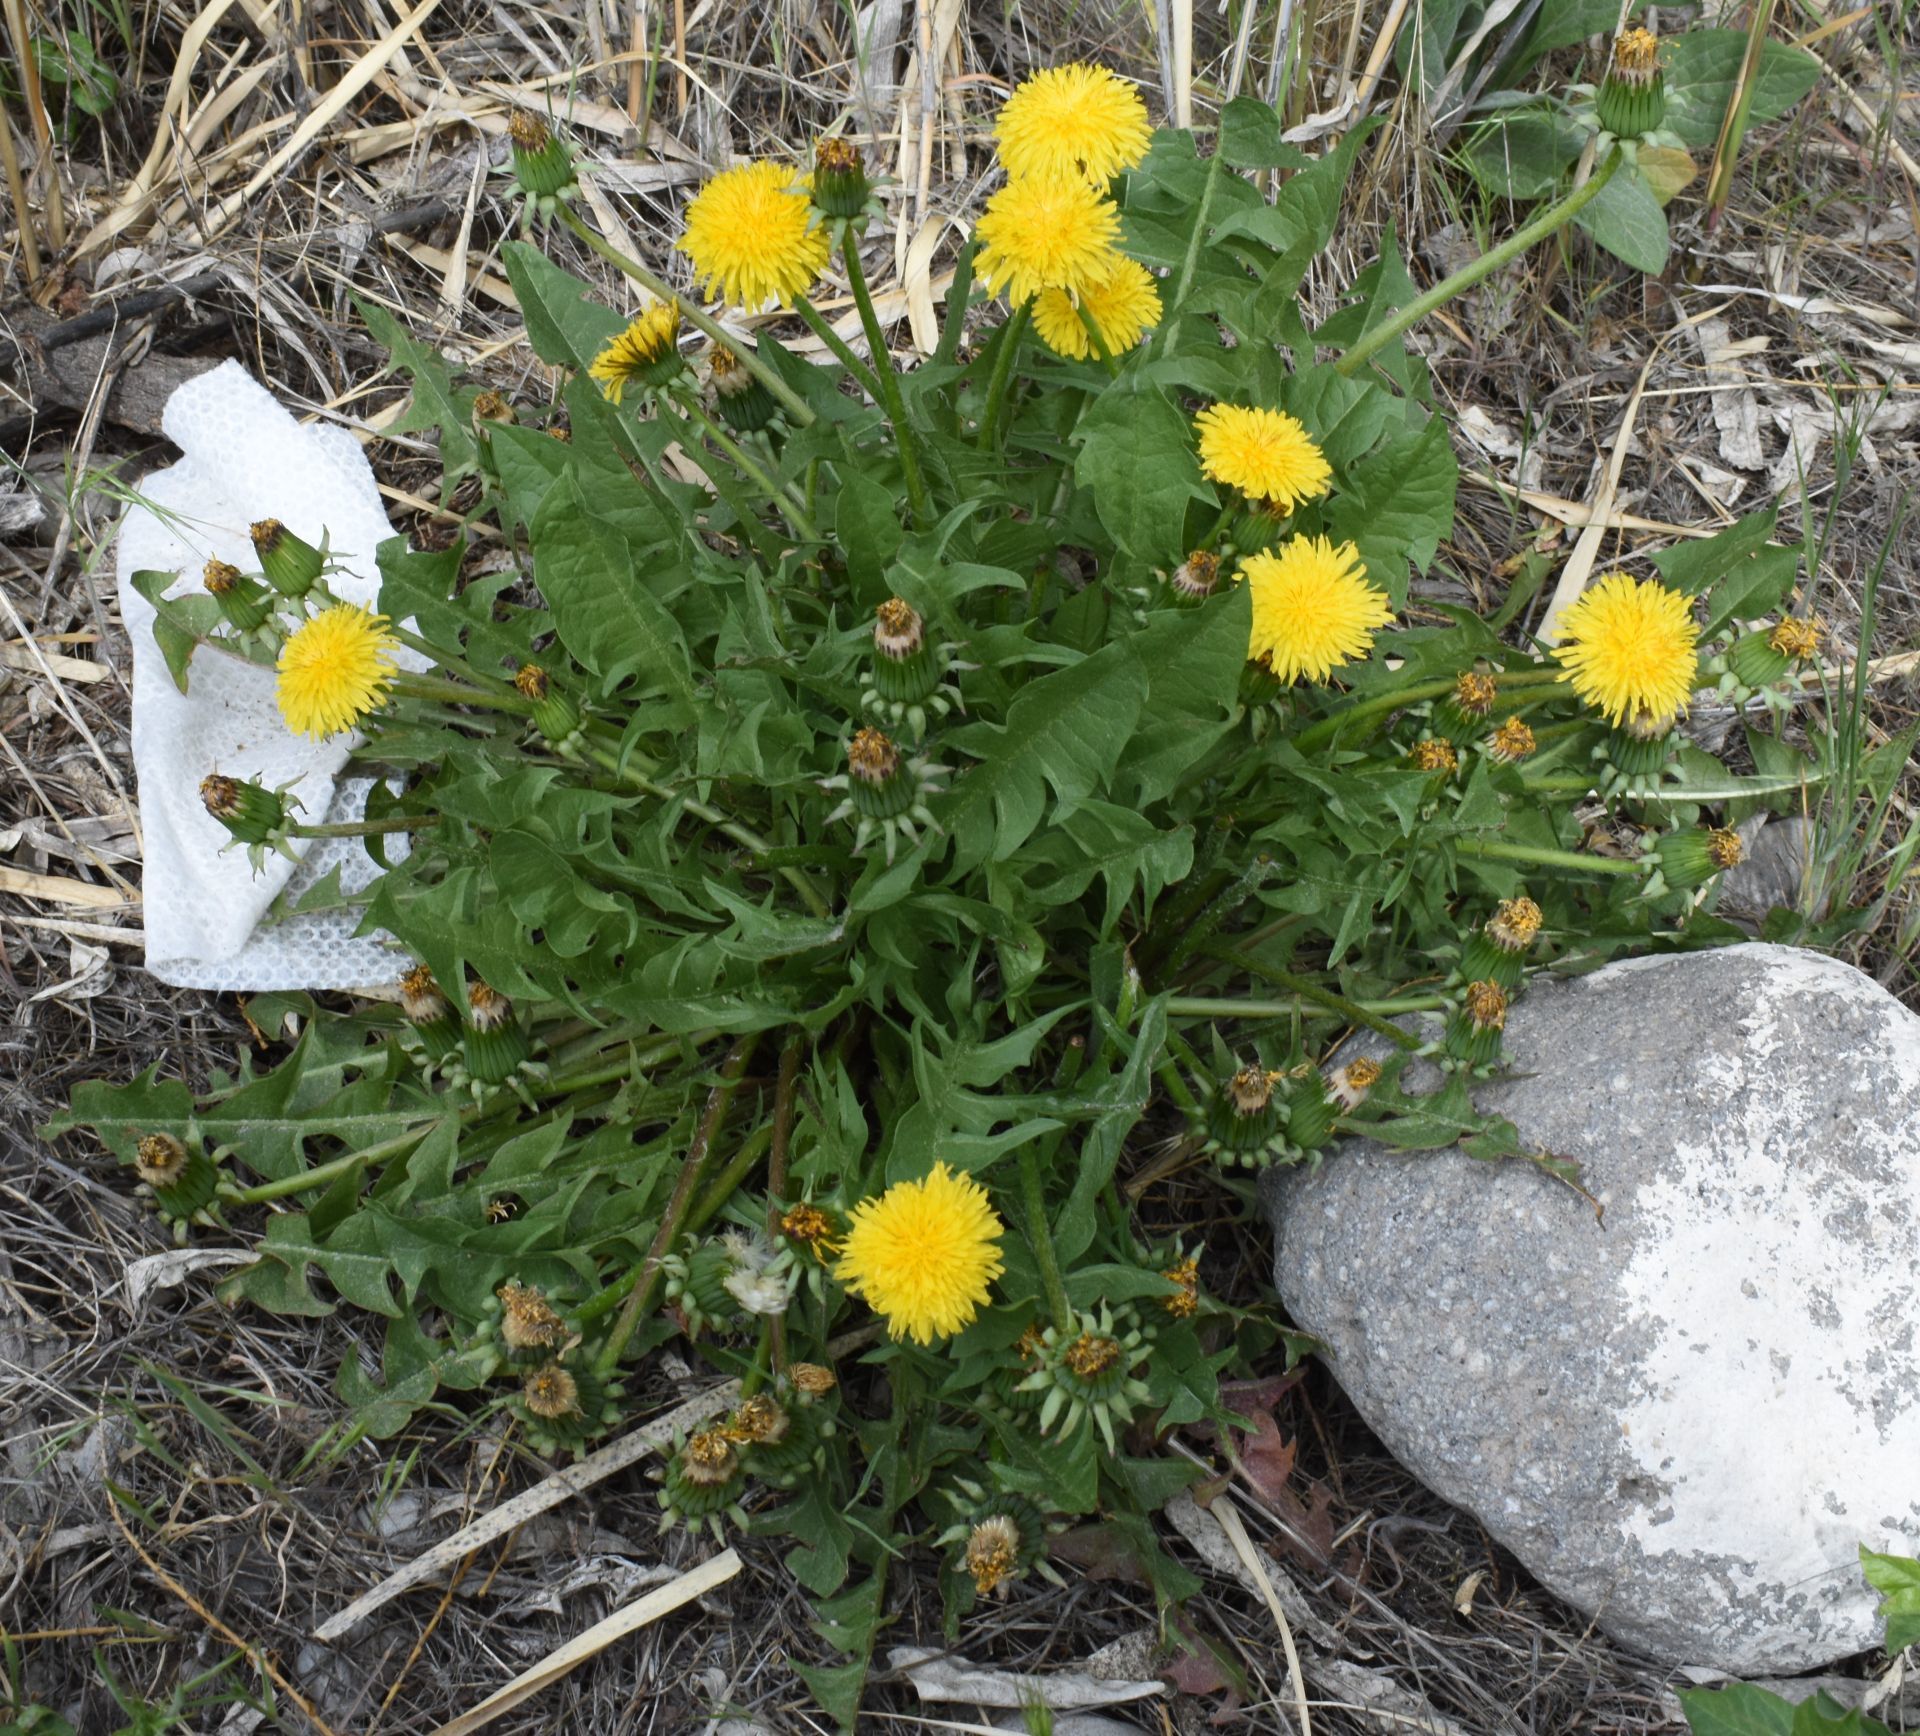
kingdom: Plantae
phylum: Tracheophyta
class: Magnoliopsida
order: Asterales
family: Asteraceae
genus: Taraxacum
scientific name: Taraxacum officinale
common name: Common dandelion
